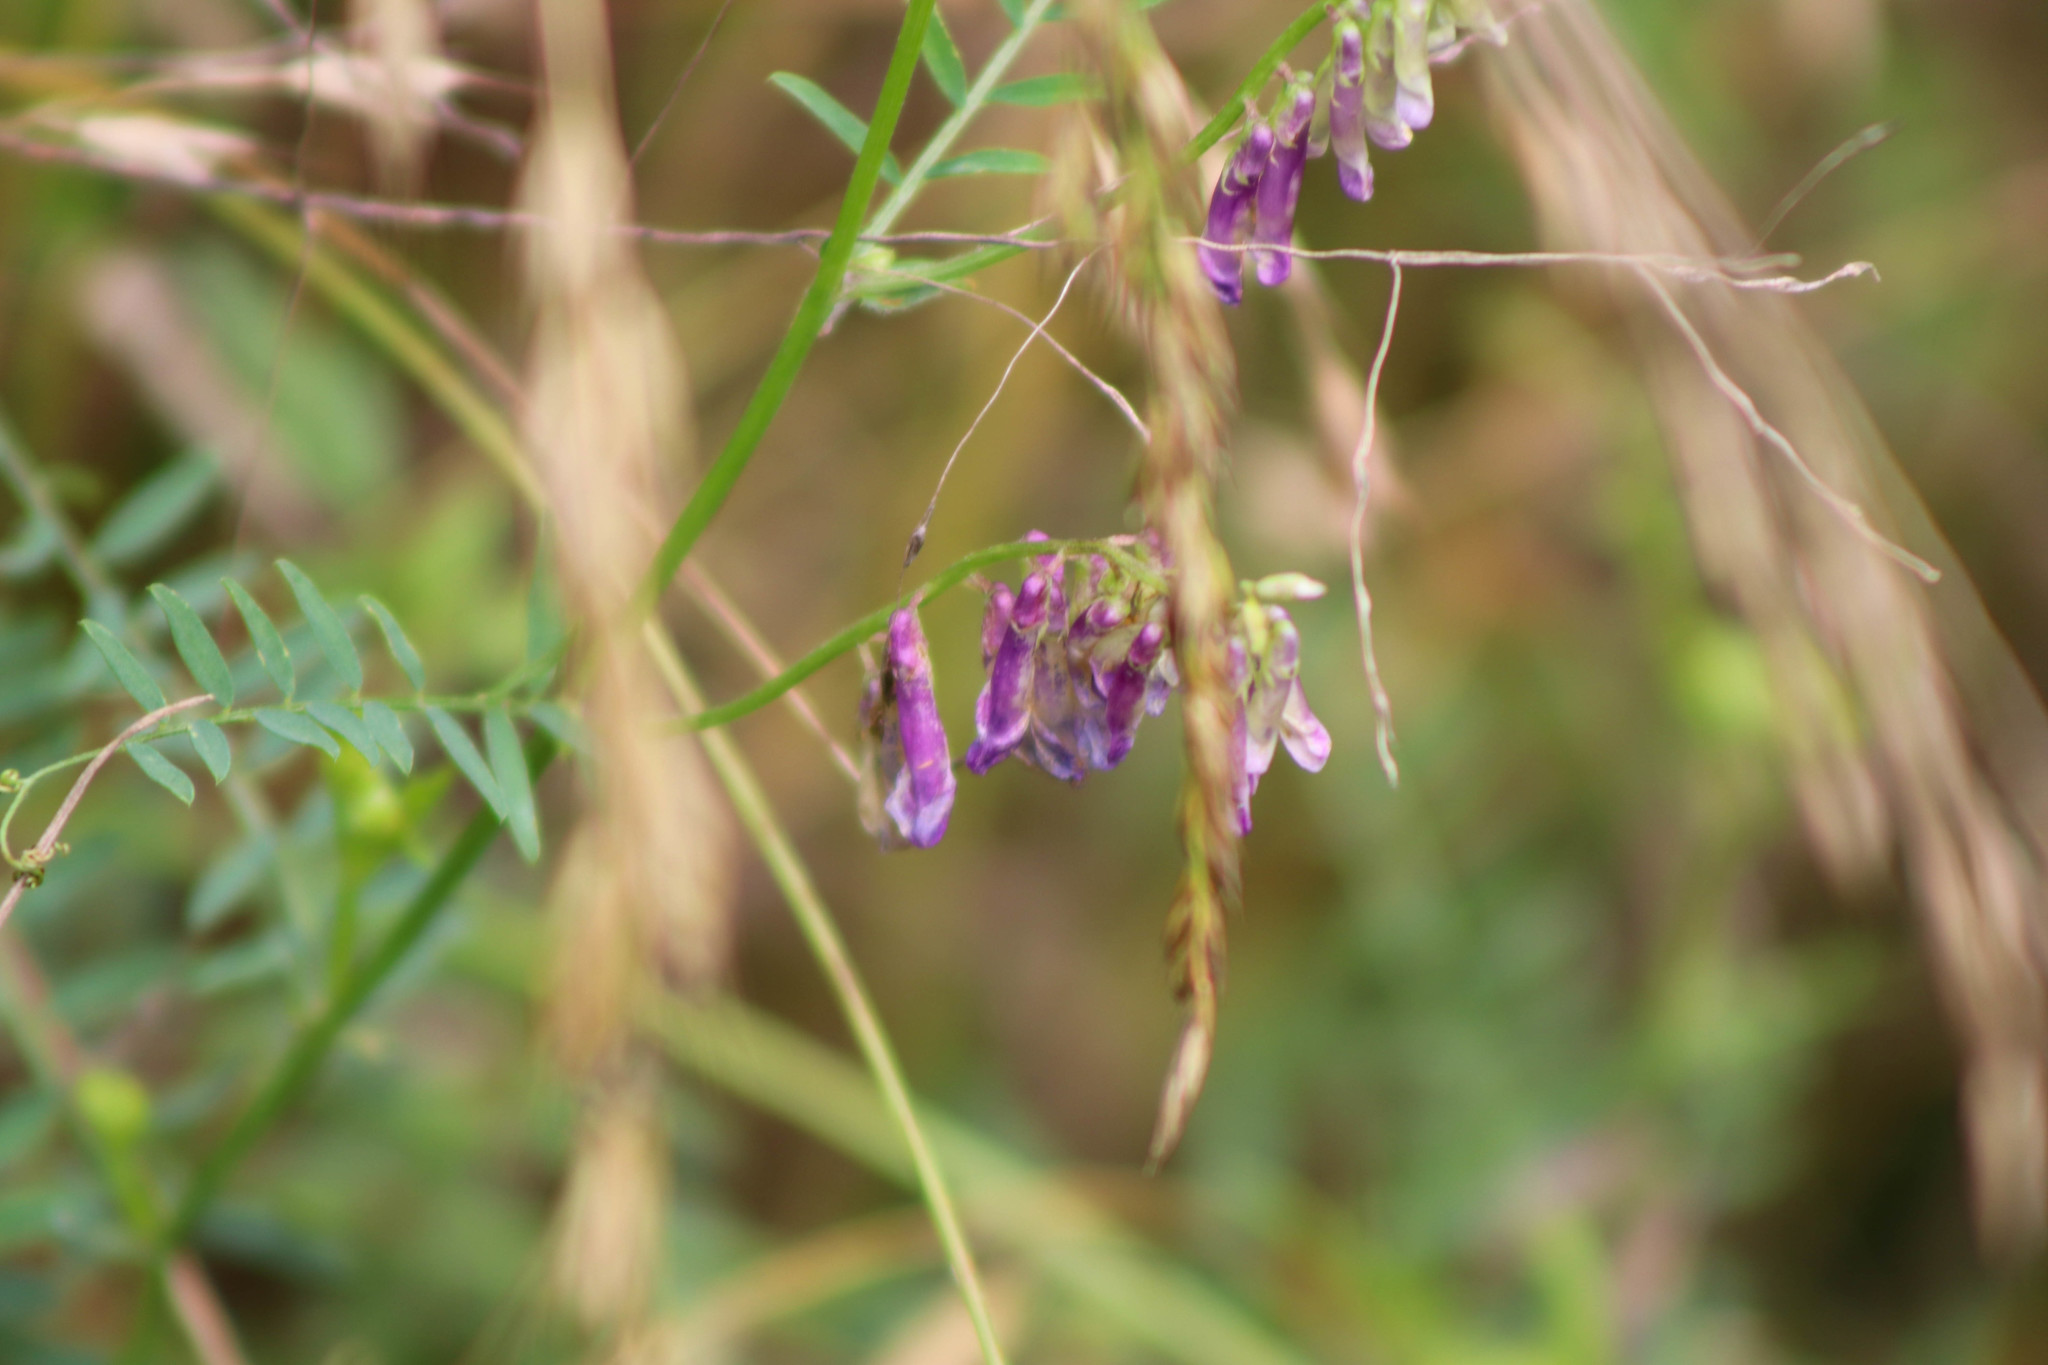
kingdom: Plantae
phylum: Tracheophyta
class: Magnoliopsida
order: Fabales
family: Fabaceae
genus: Vicia
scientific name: Vicia villosa
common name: Fodder vetch
